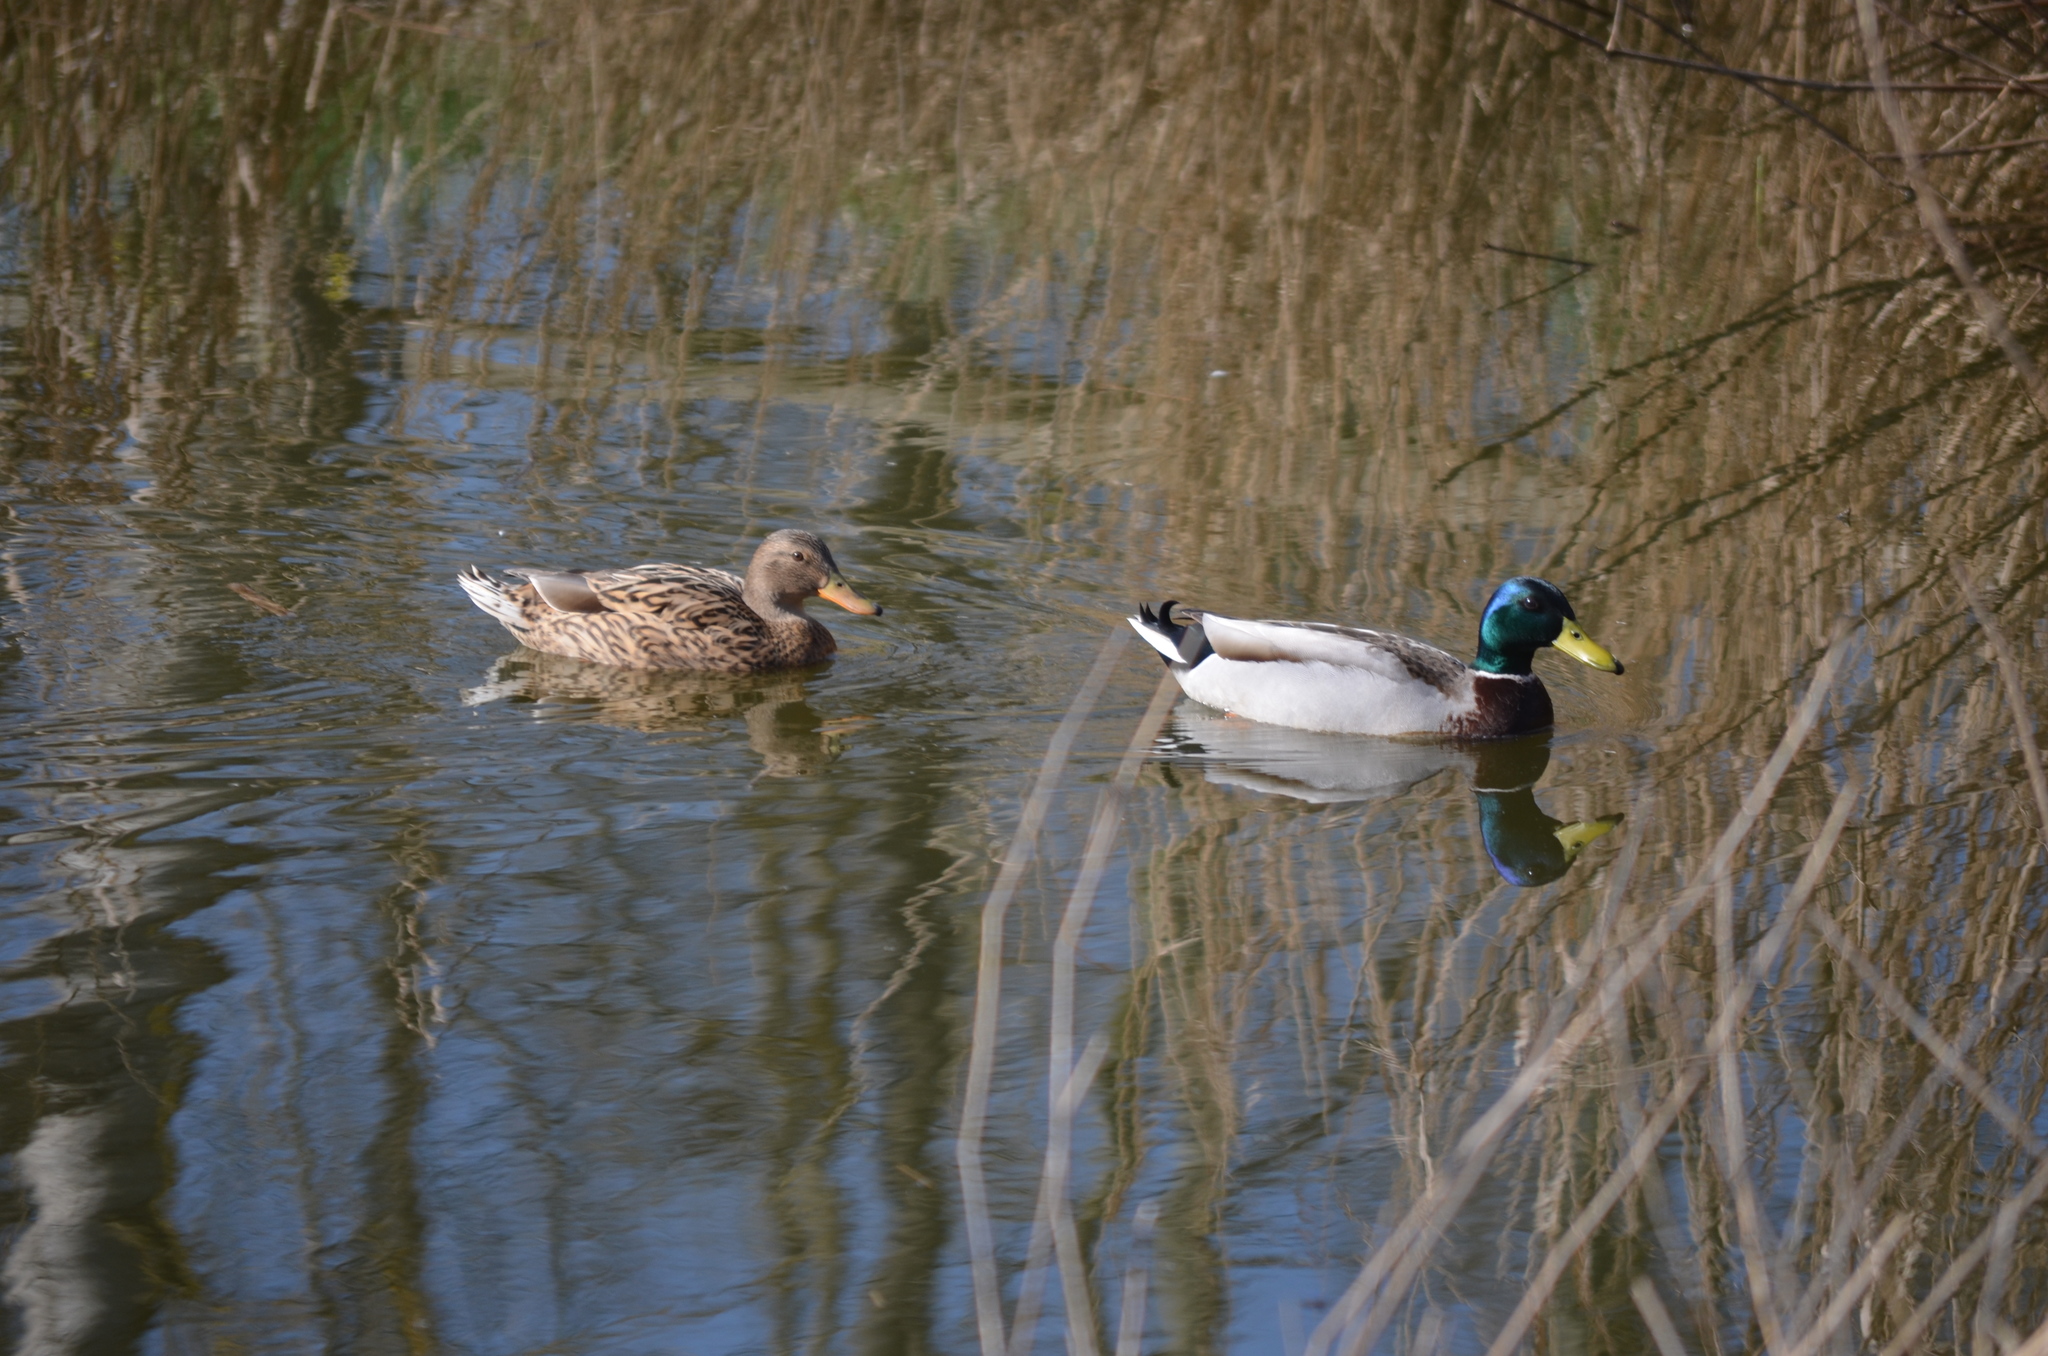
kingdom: Animalia
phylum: Chordata
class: Aves
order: Anseriformes
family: Anatidae
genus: Anas
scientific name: Anas platyrhynchos
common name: Mallard
